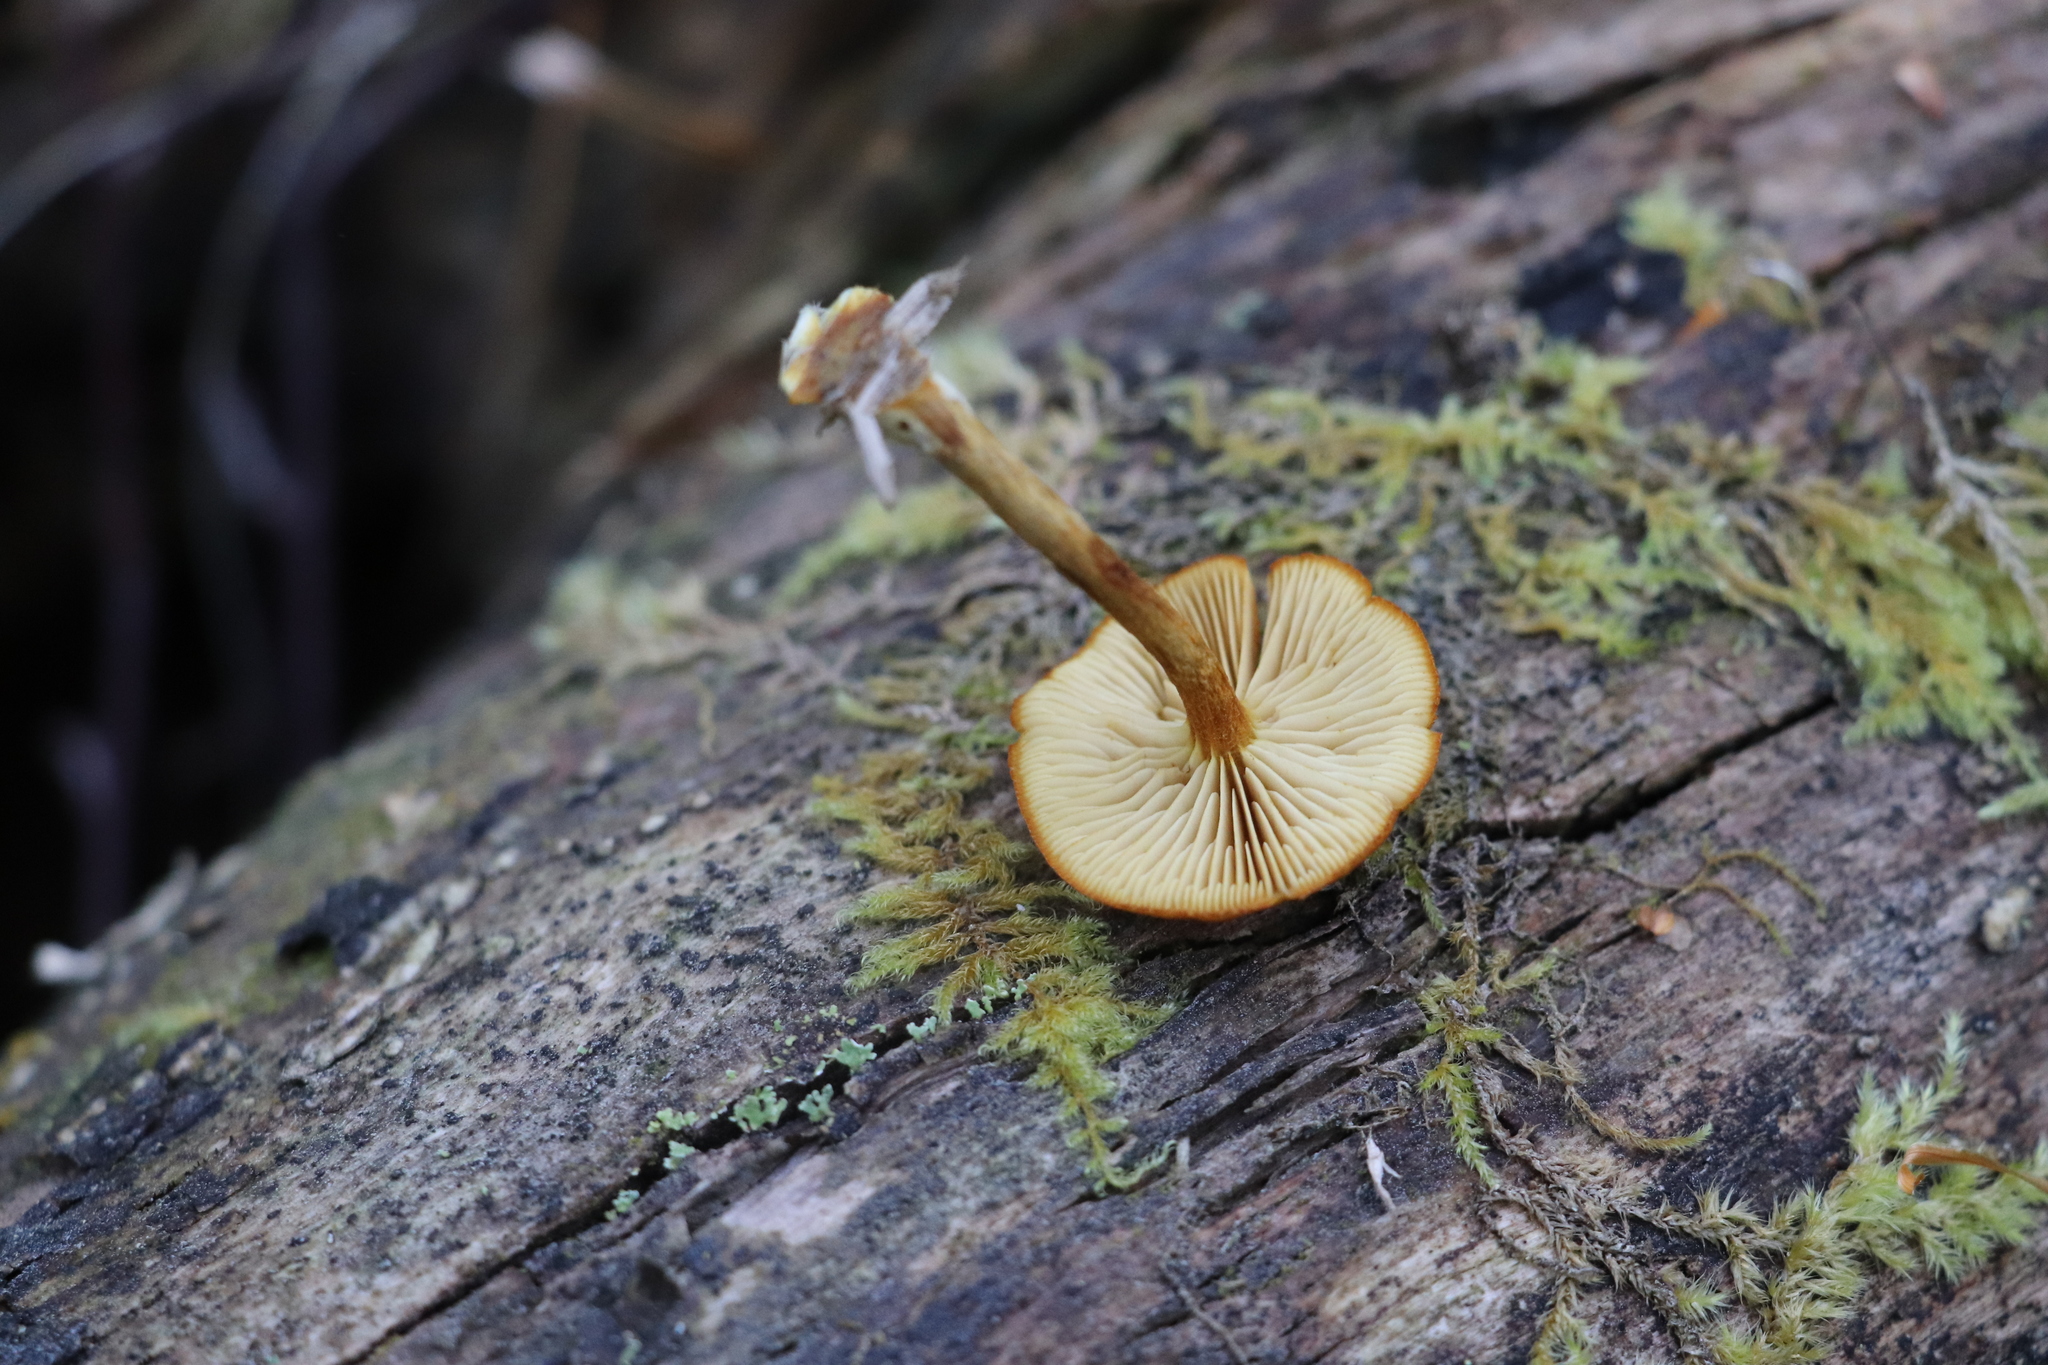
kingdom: Fungi
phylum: Basidiomycota
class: Agaricomycetes
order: Agaricales
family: Tubariaceae
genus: Flammulaster
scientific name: Flammulaster limulatus
